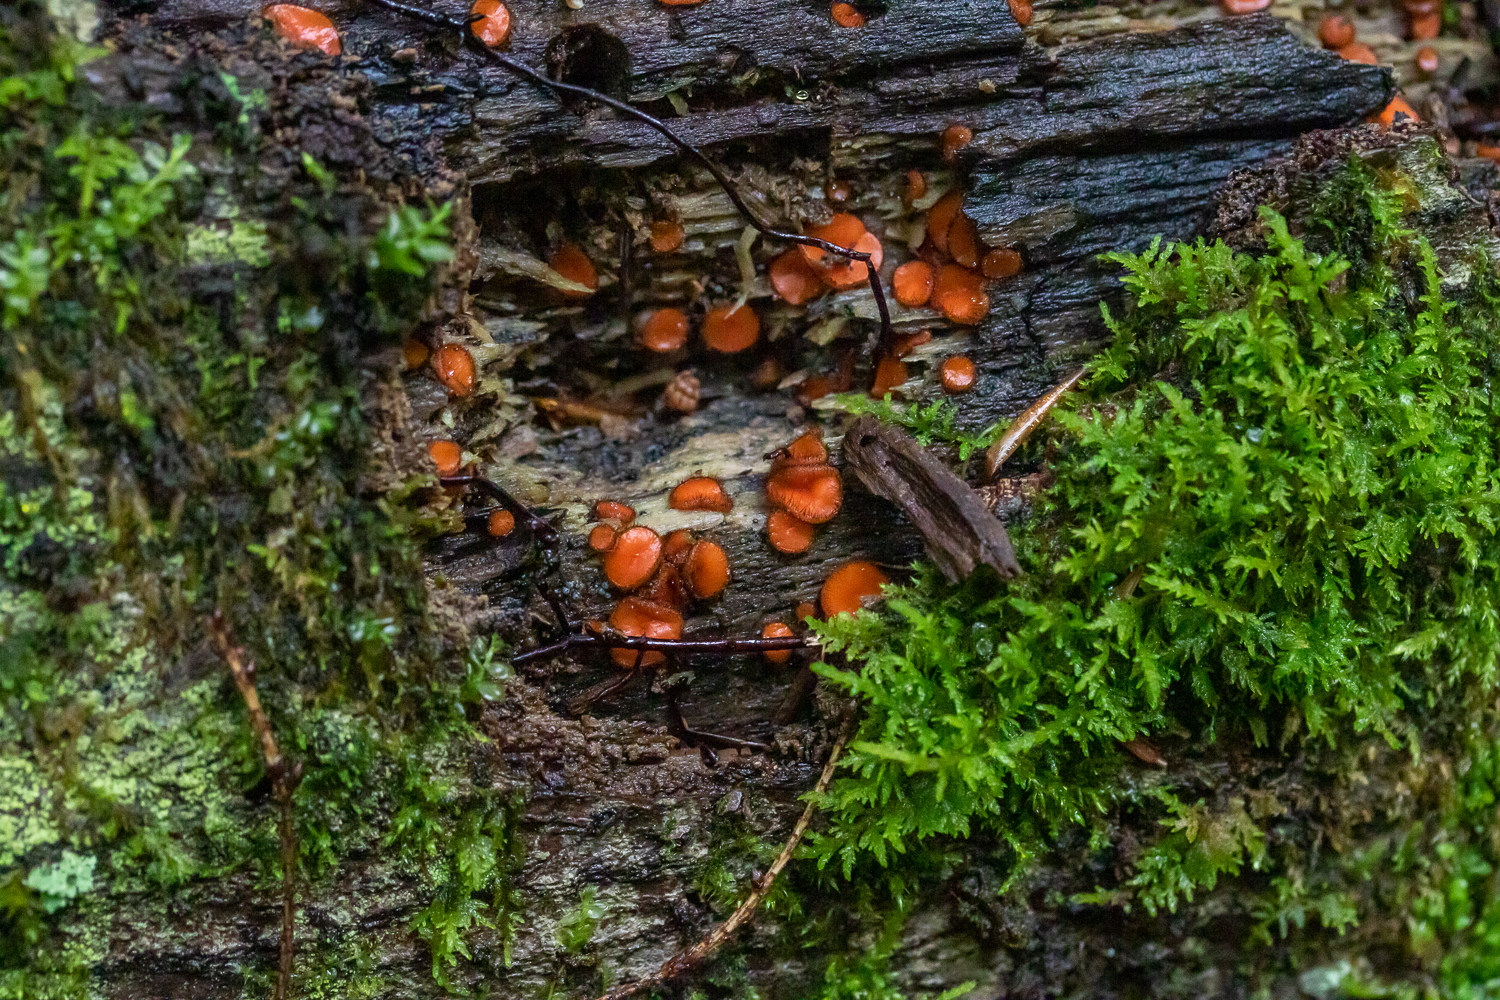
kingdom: Fungi
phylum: Ascomycota
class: Pezizomycetes
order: Pezizales
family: Pyronemataceae
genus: Scutellinia
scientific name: Scutellinia olivascens
